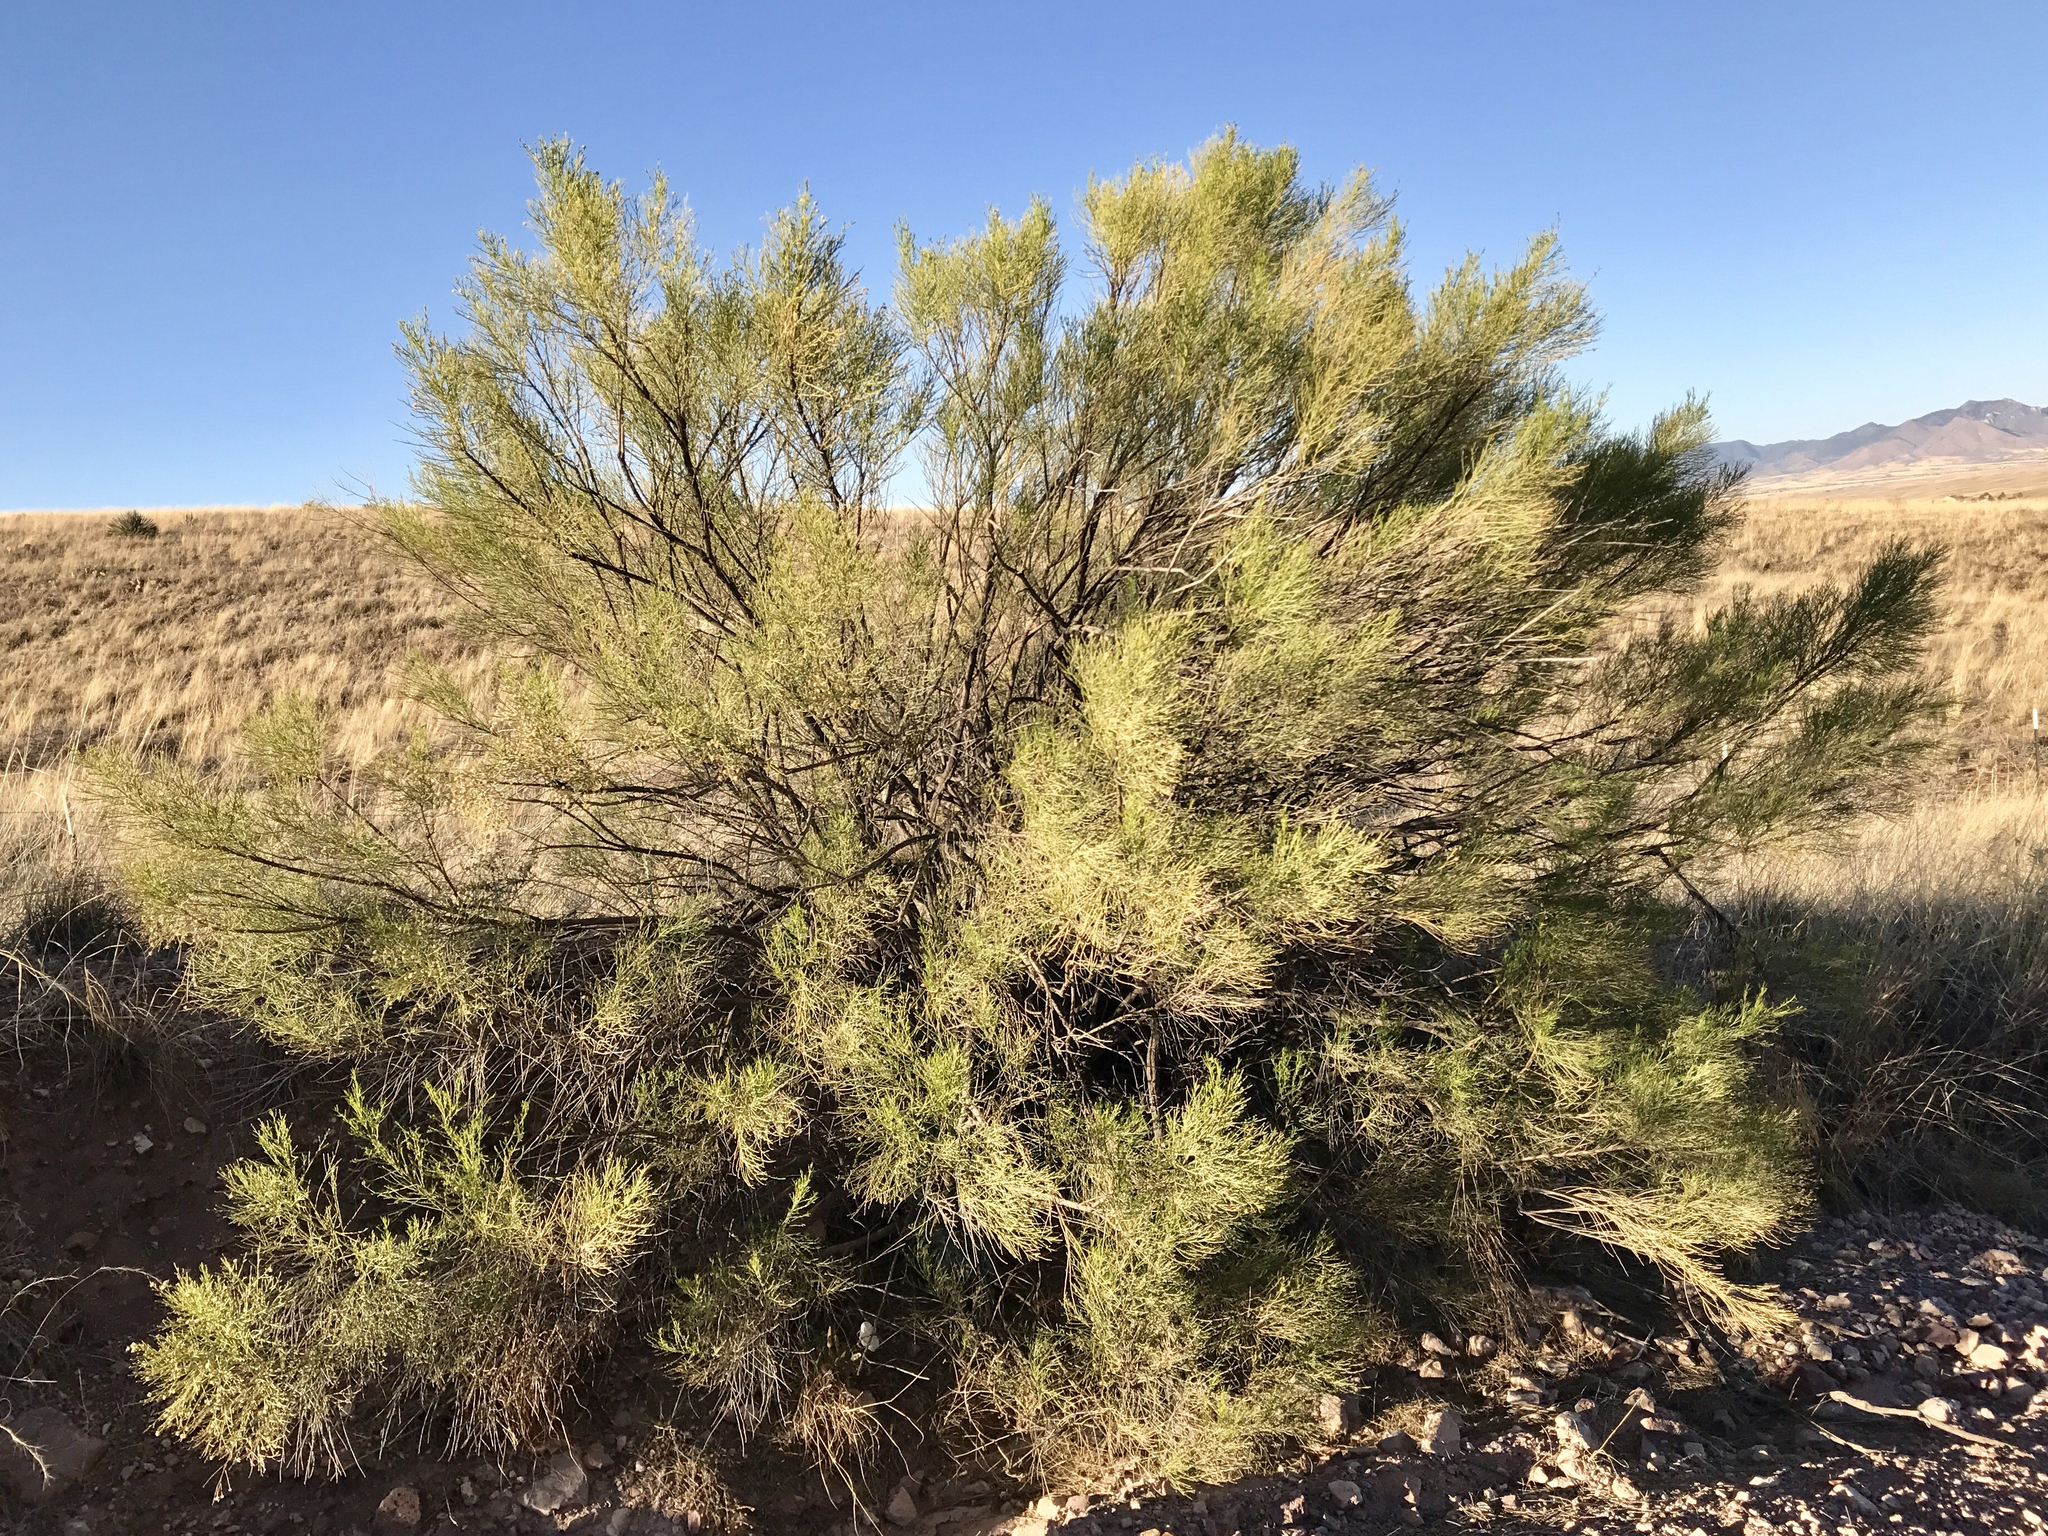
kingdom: Plantae
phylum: Tracheophyta
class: Magnoliopsida
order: Asterales
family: Asteraceae
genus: Baccharis
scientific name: Baccharis sarothroides
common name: Desert-broom
